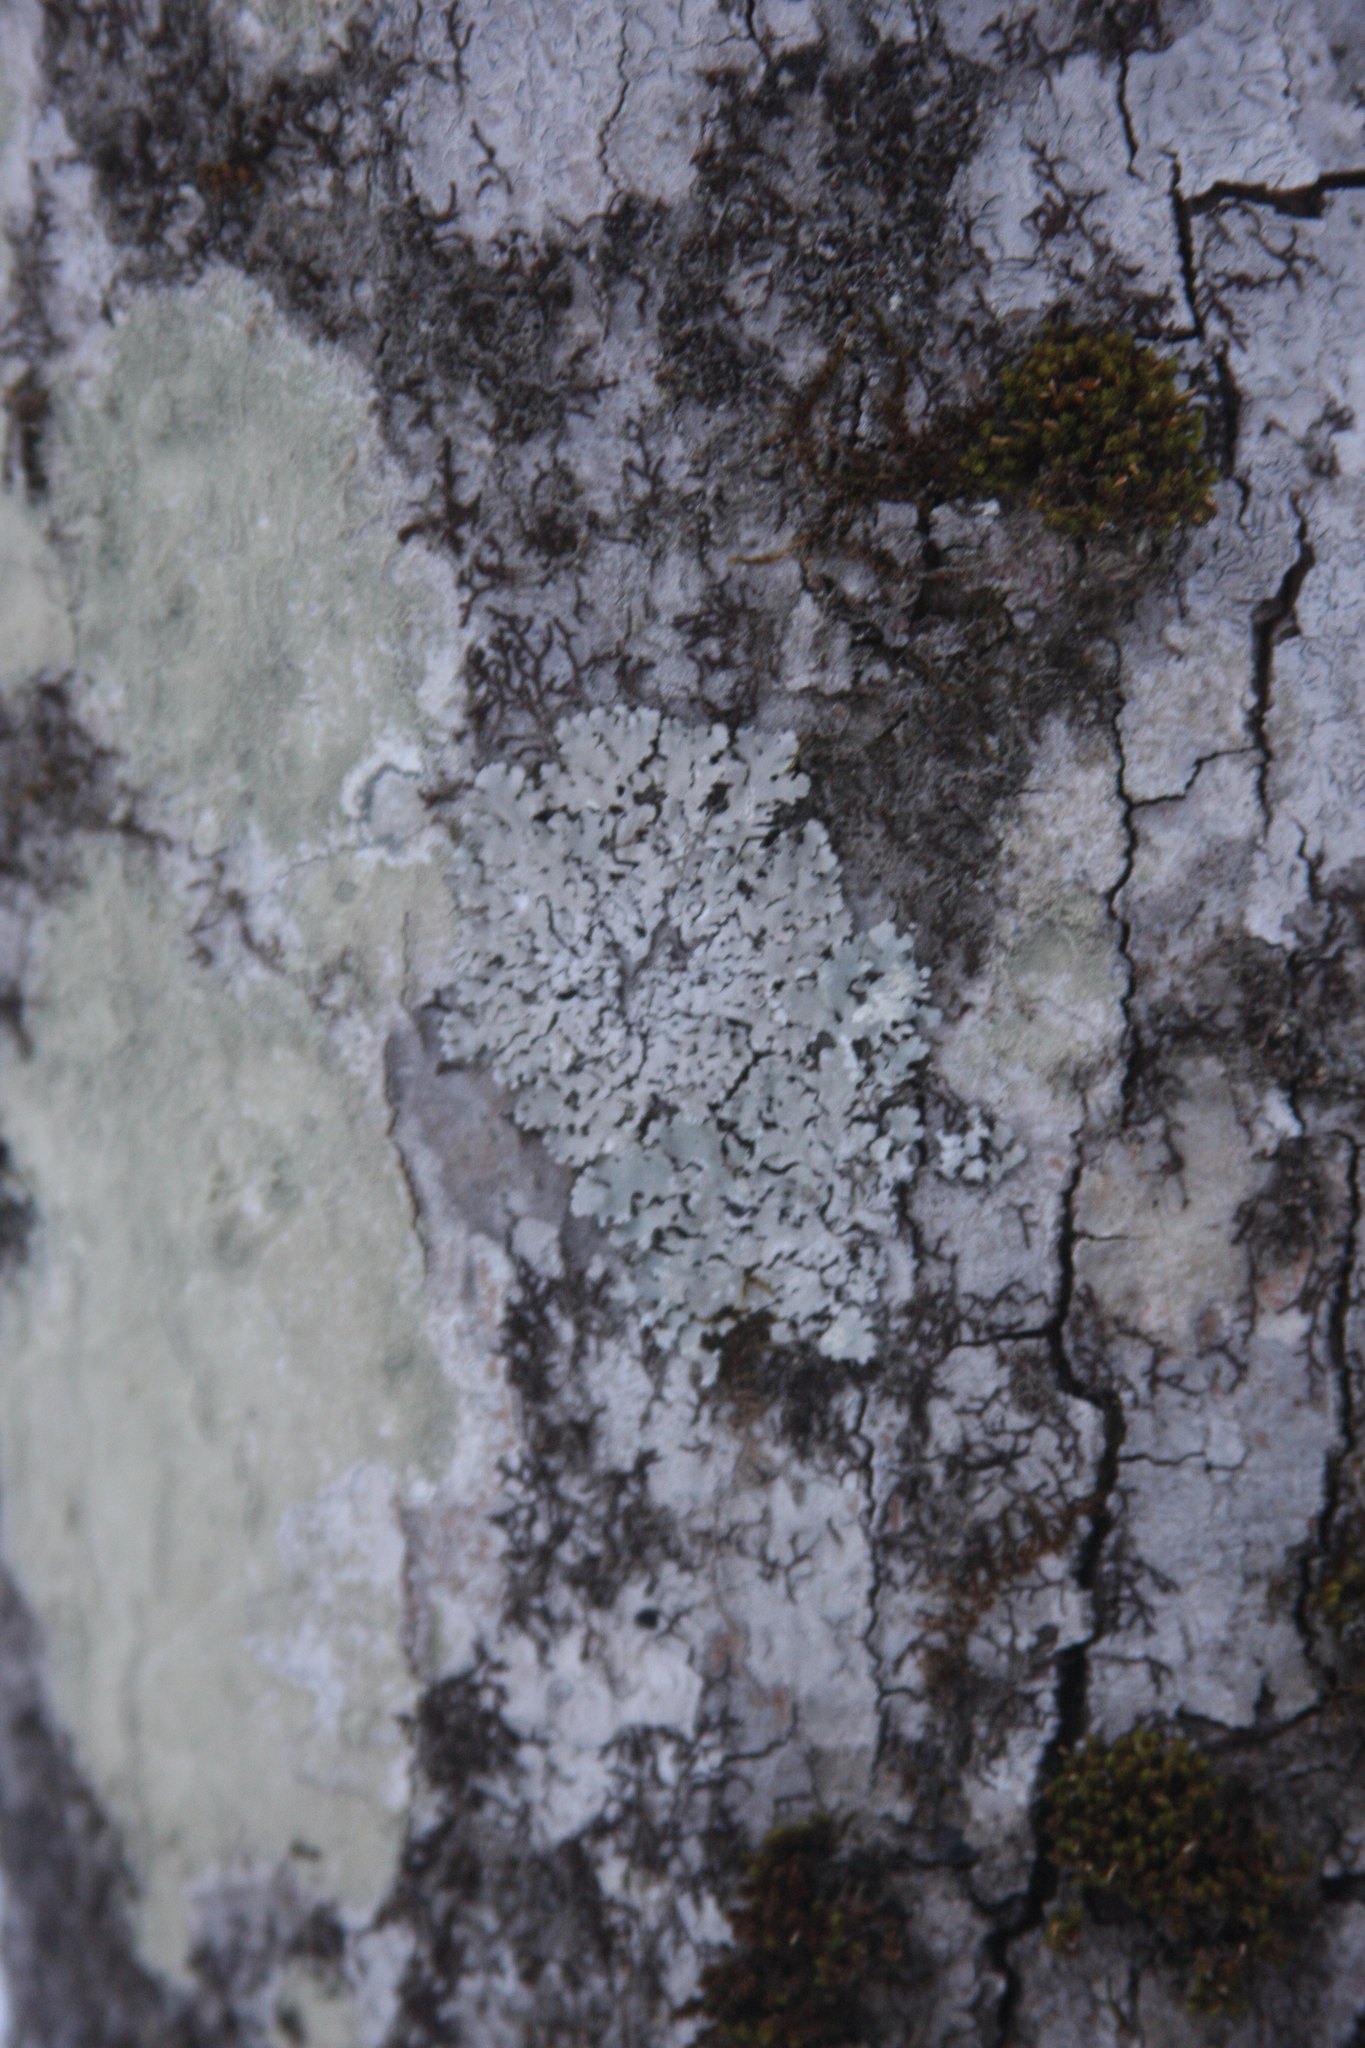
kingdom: Plantae
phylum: Bryophyta
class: Bryopsida
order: Orthotrichales
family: Orthotrichaceae
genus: Ulota
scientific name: Ulota crispa
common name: Crisped pincushion moss
